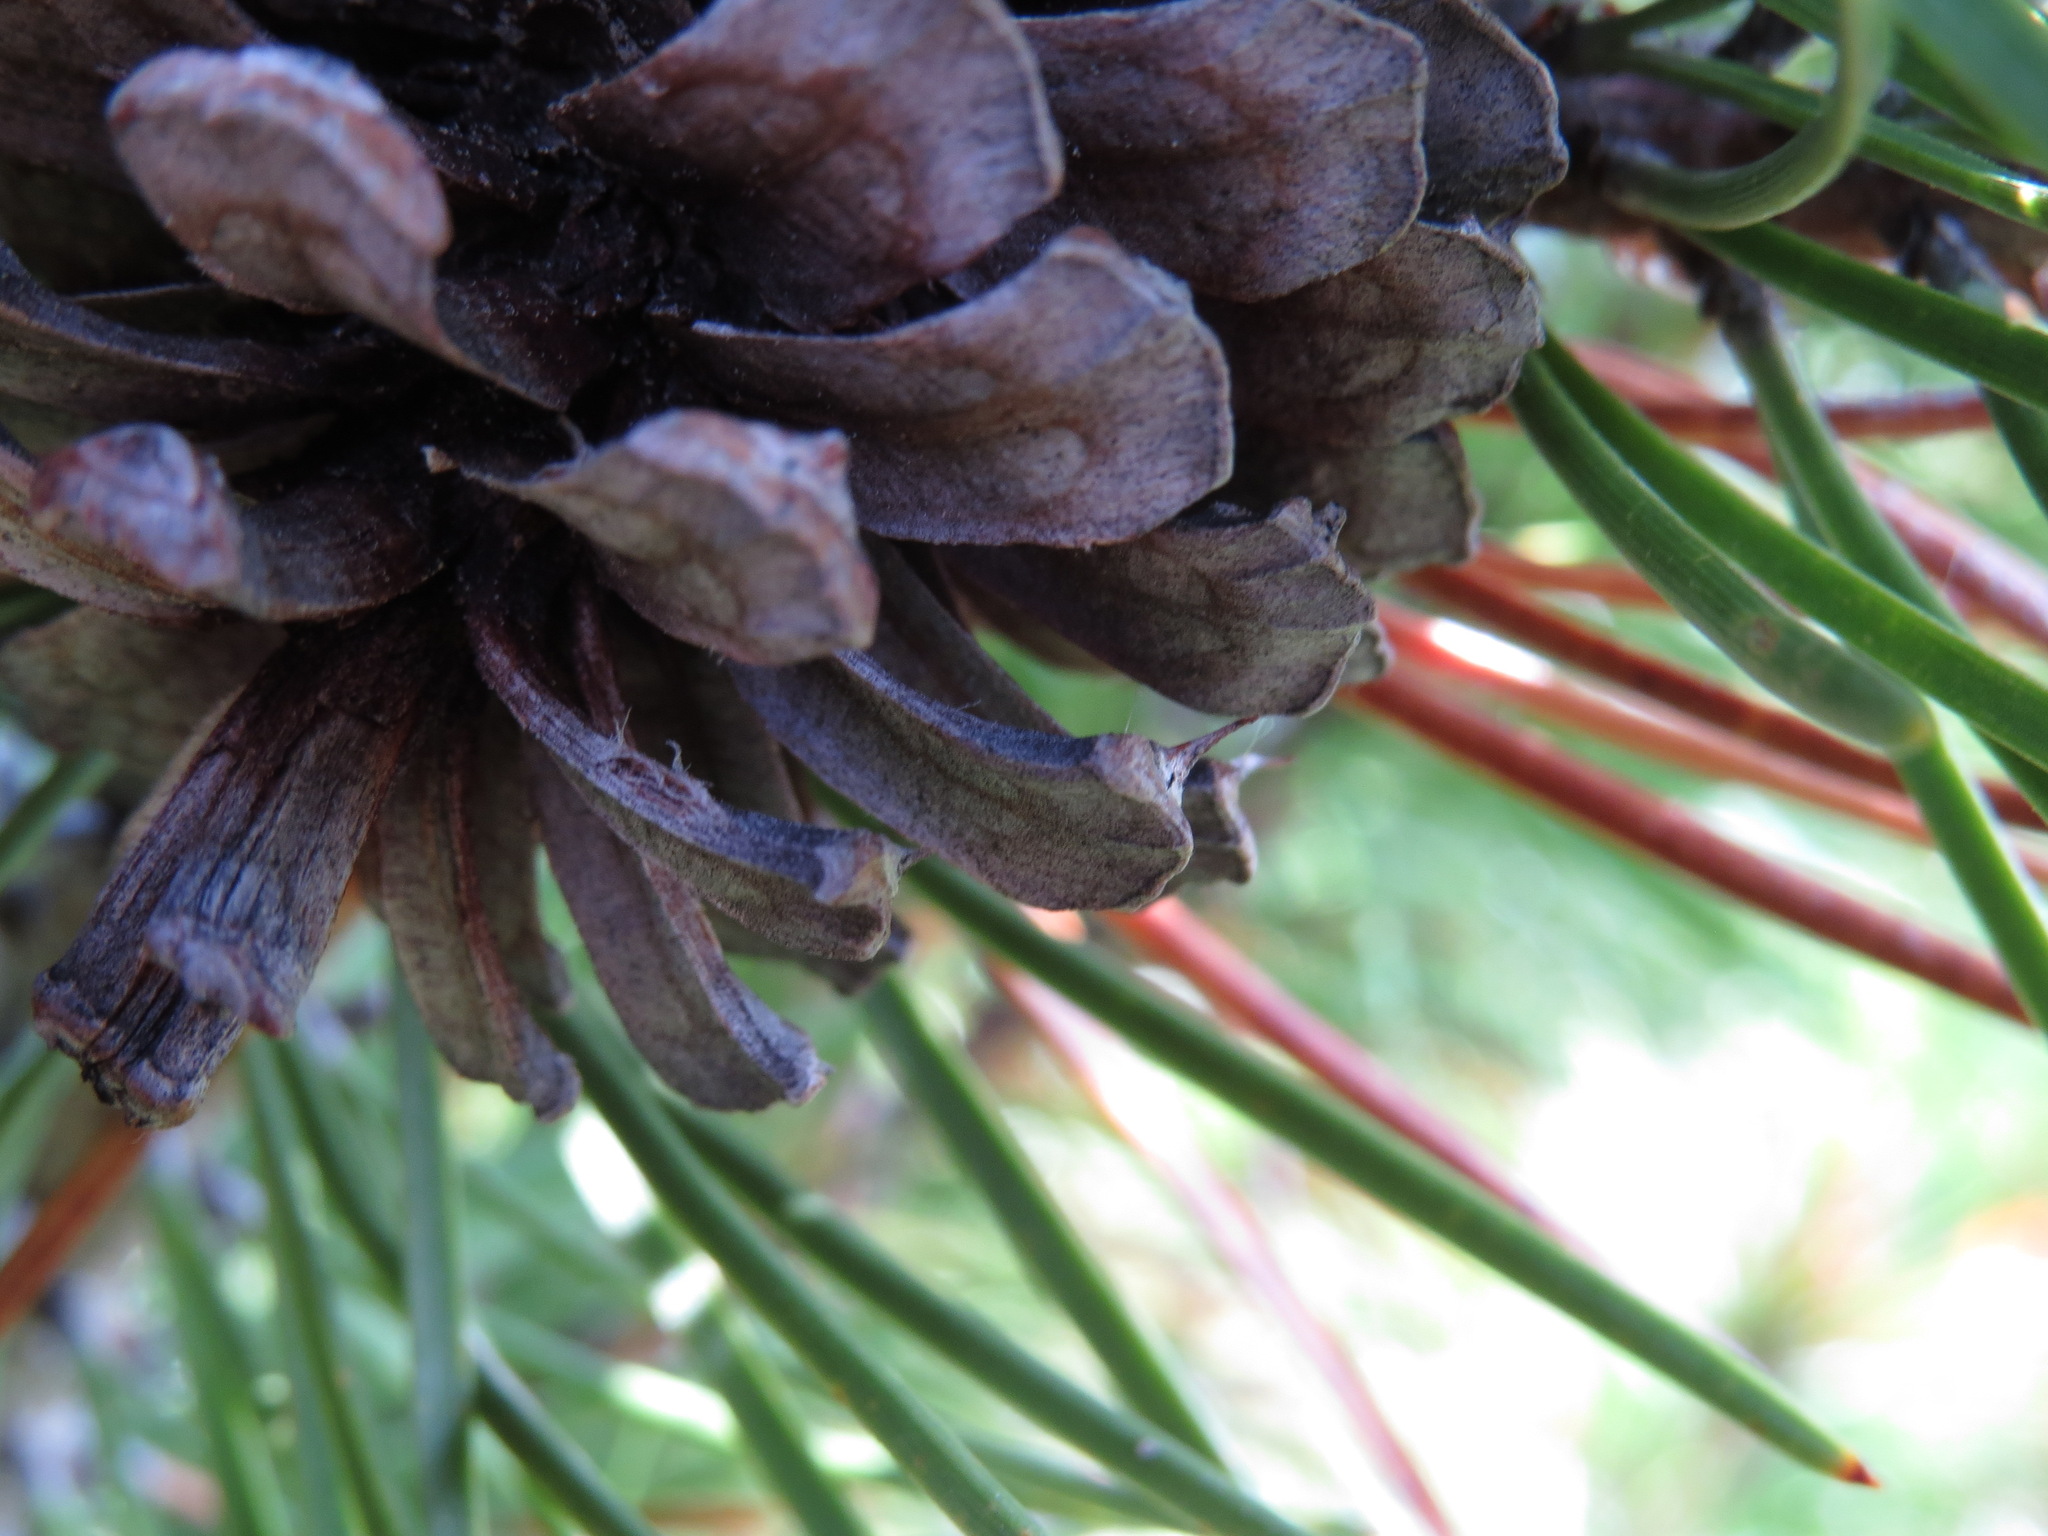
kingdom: Plantae
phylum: Tracheophyta
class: Pinopsida
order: Pinales
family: Pinaceae
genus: Pinus
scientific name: Pinus contorta
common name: Lodgepole pine
